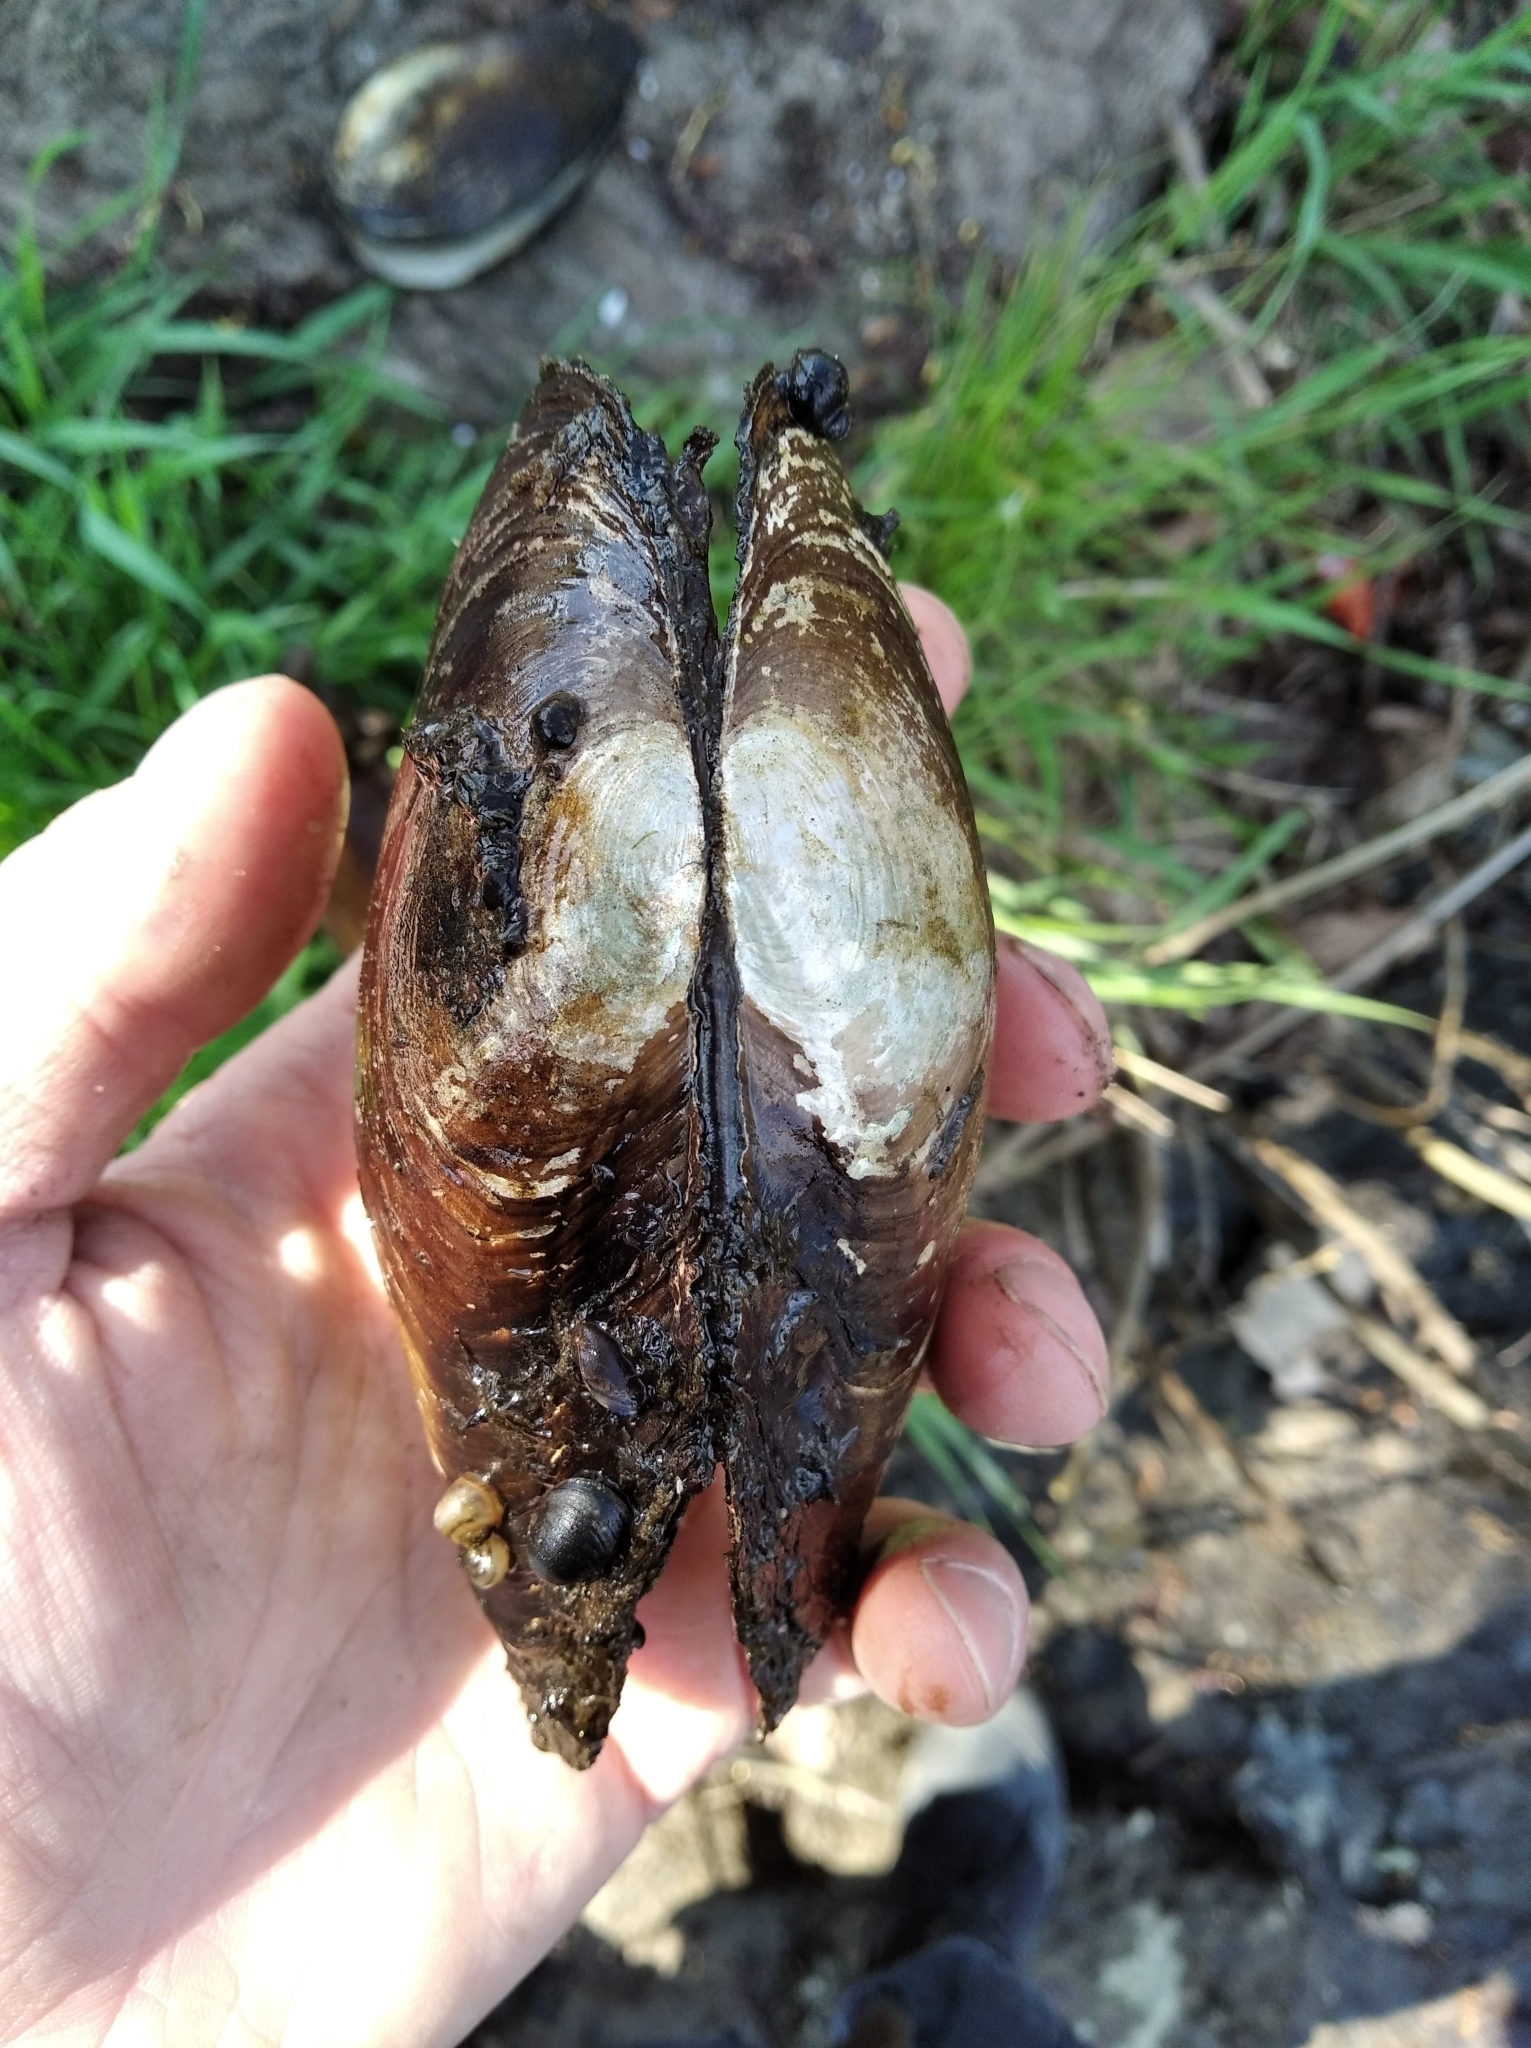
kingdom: Animalia
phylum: Mollusca
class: Bivalvia
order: Unionida
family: Unionidae
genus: Anodonta
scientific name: Anodonta anatina
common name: Duck mussel
